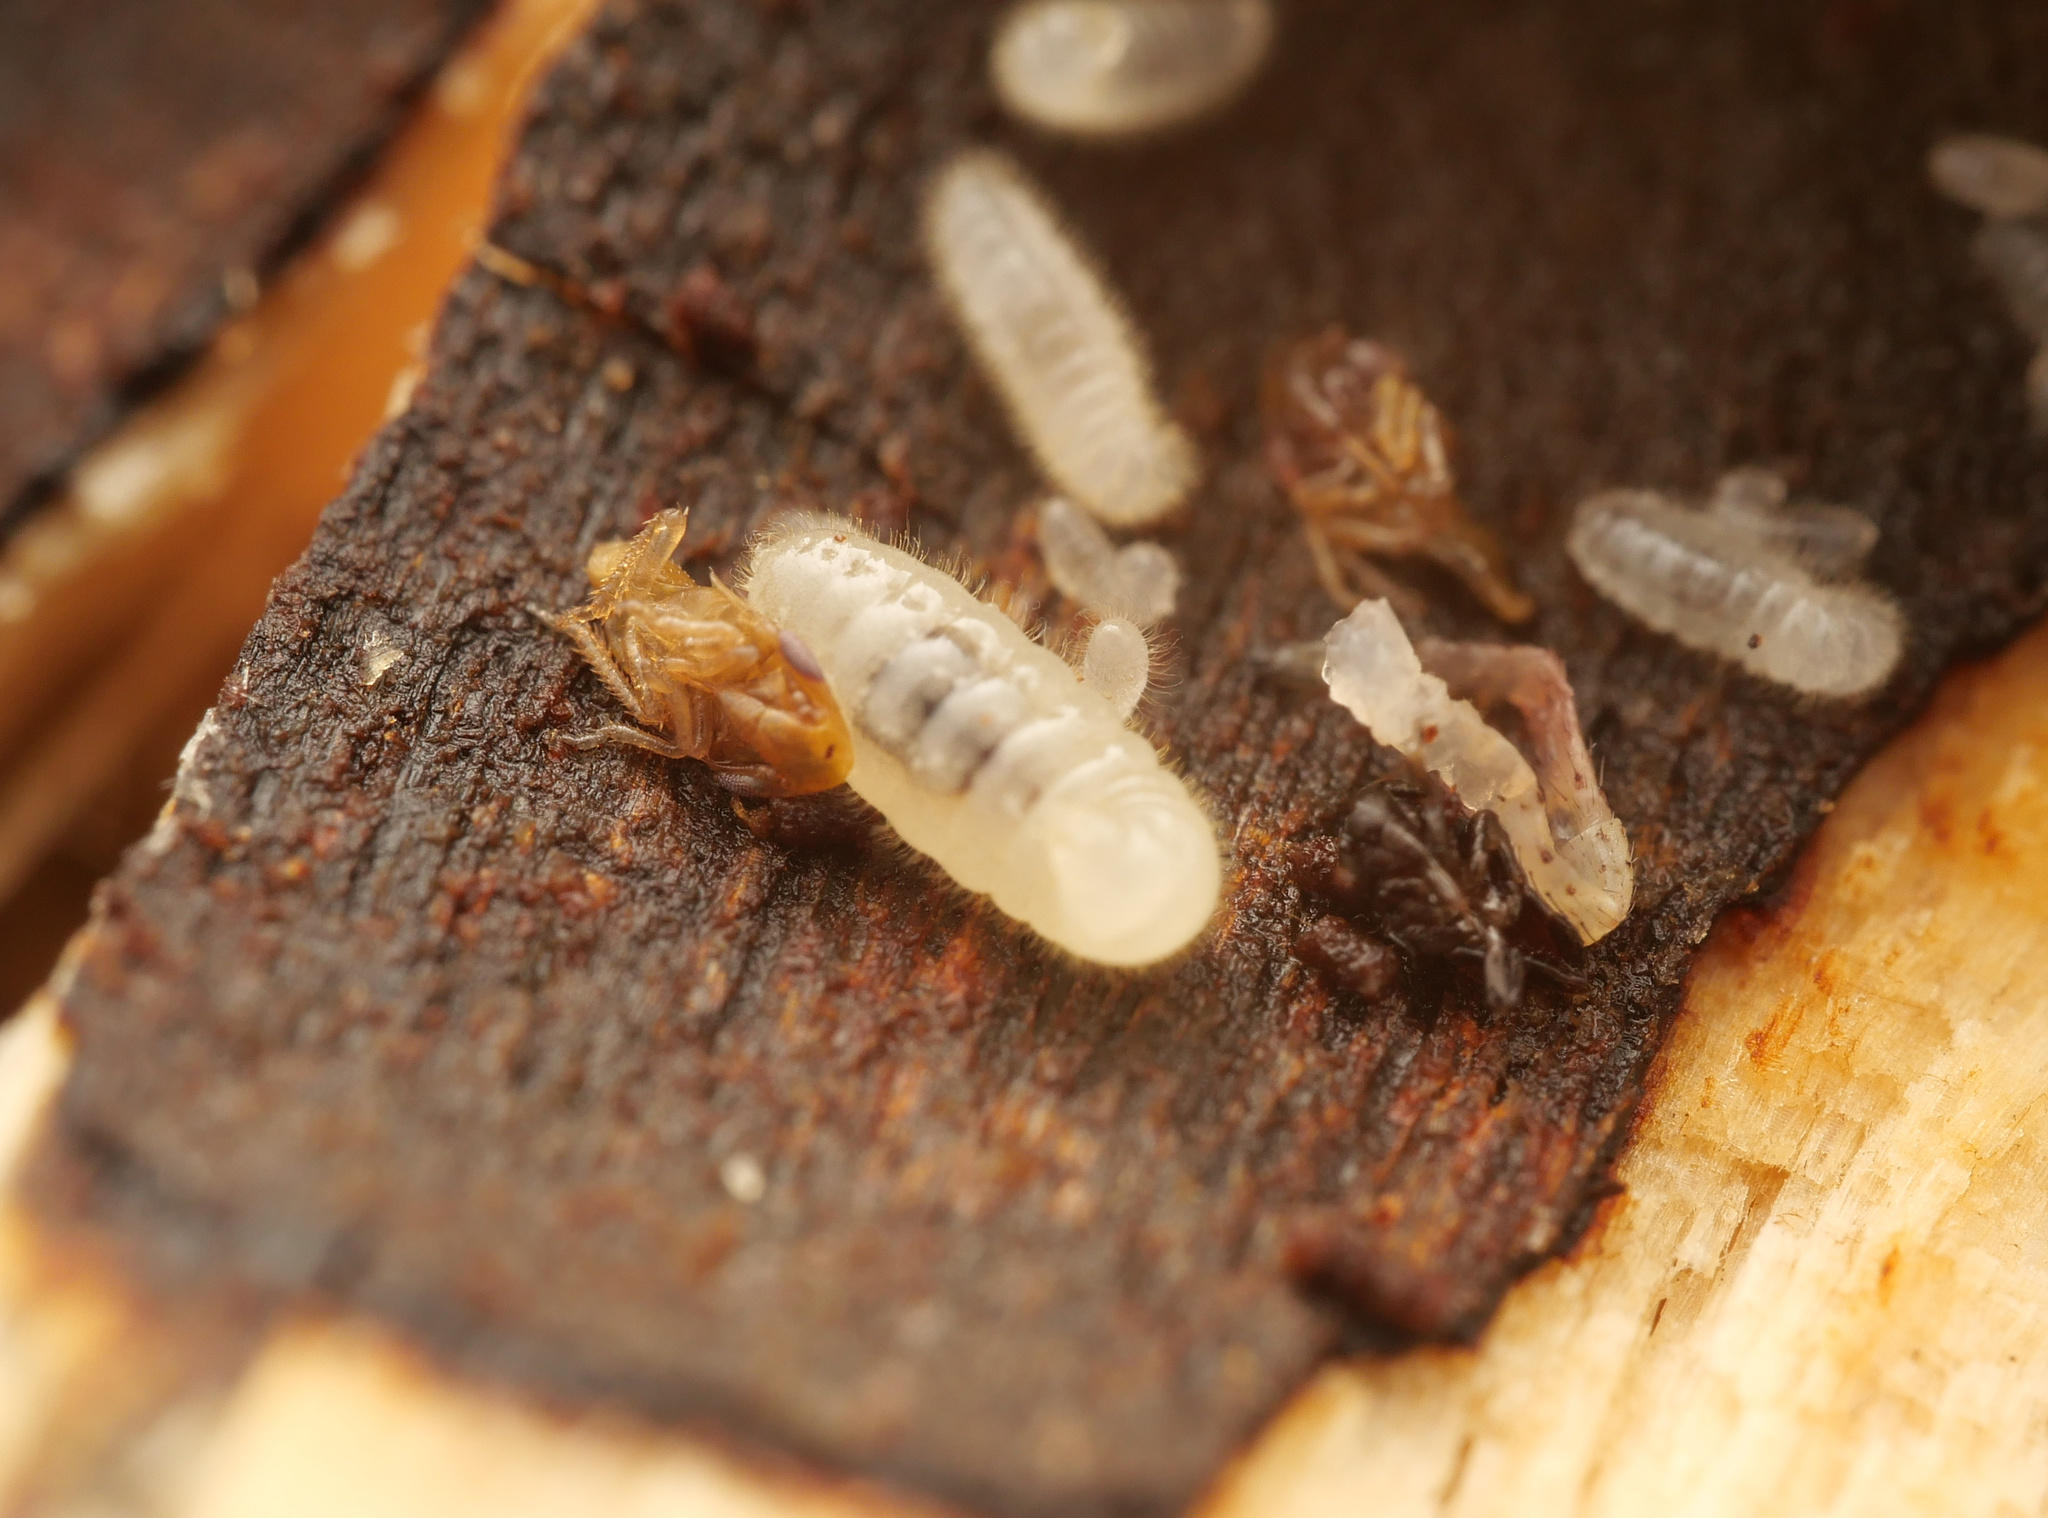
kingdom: Animalia
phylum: Arthropoda
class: Insecta
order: Hymenoptera
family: Formicidae
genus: Lasius
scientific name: Lasius platythorax
